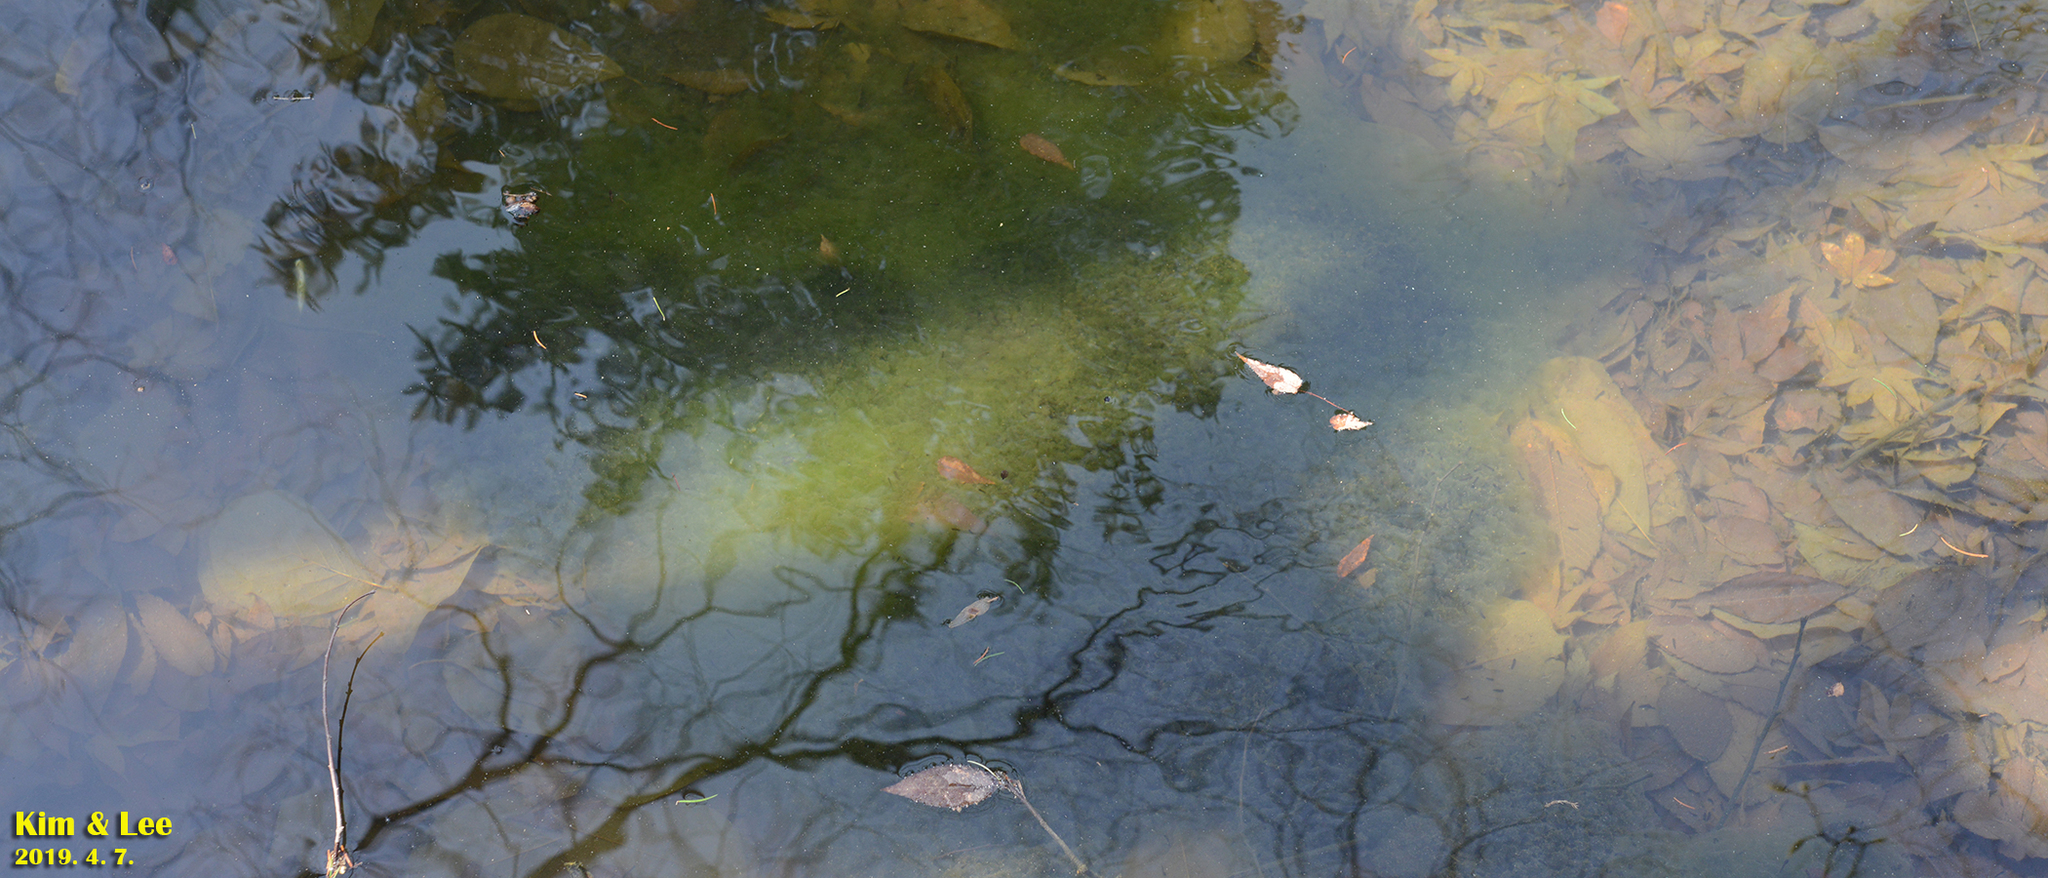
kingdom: Animalia
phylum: Chordata
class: Amphibia
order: Anura
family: Ranidae
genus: Rana
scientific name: Rana uenoi
